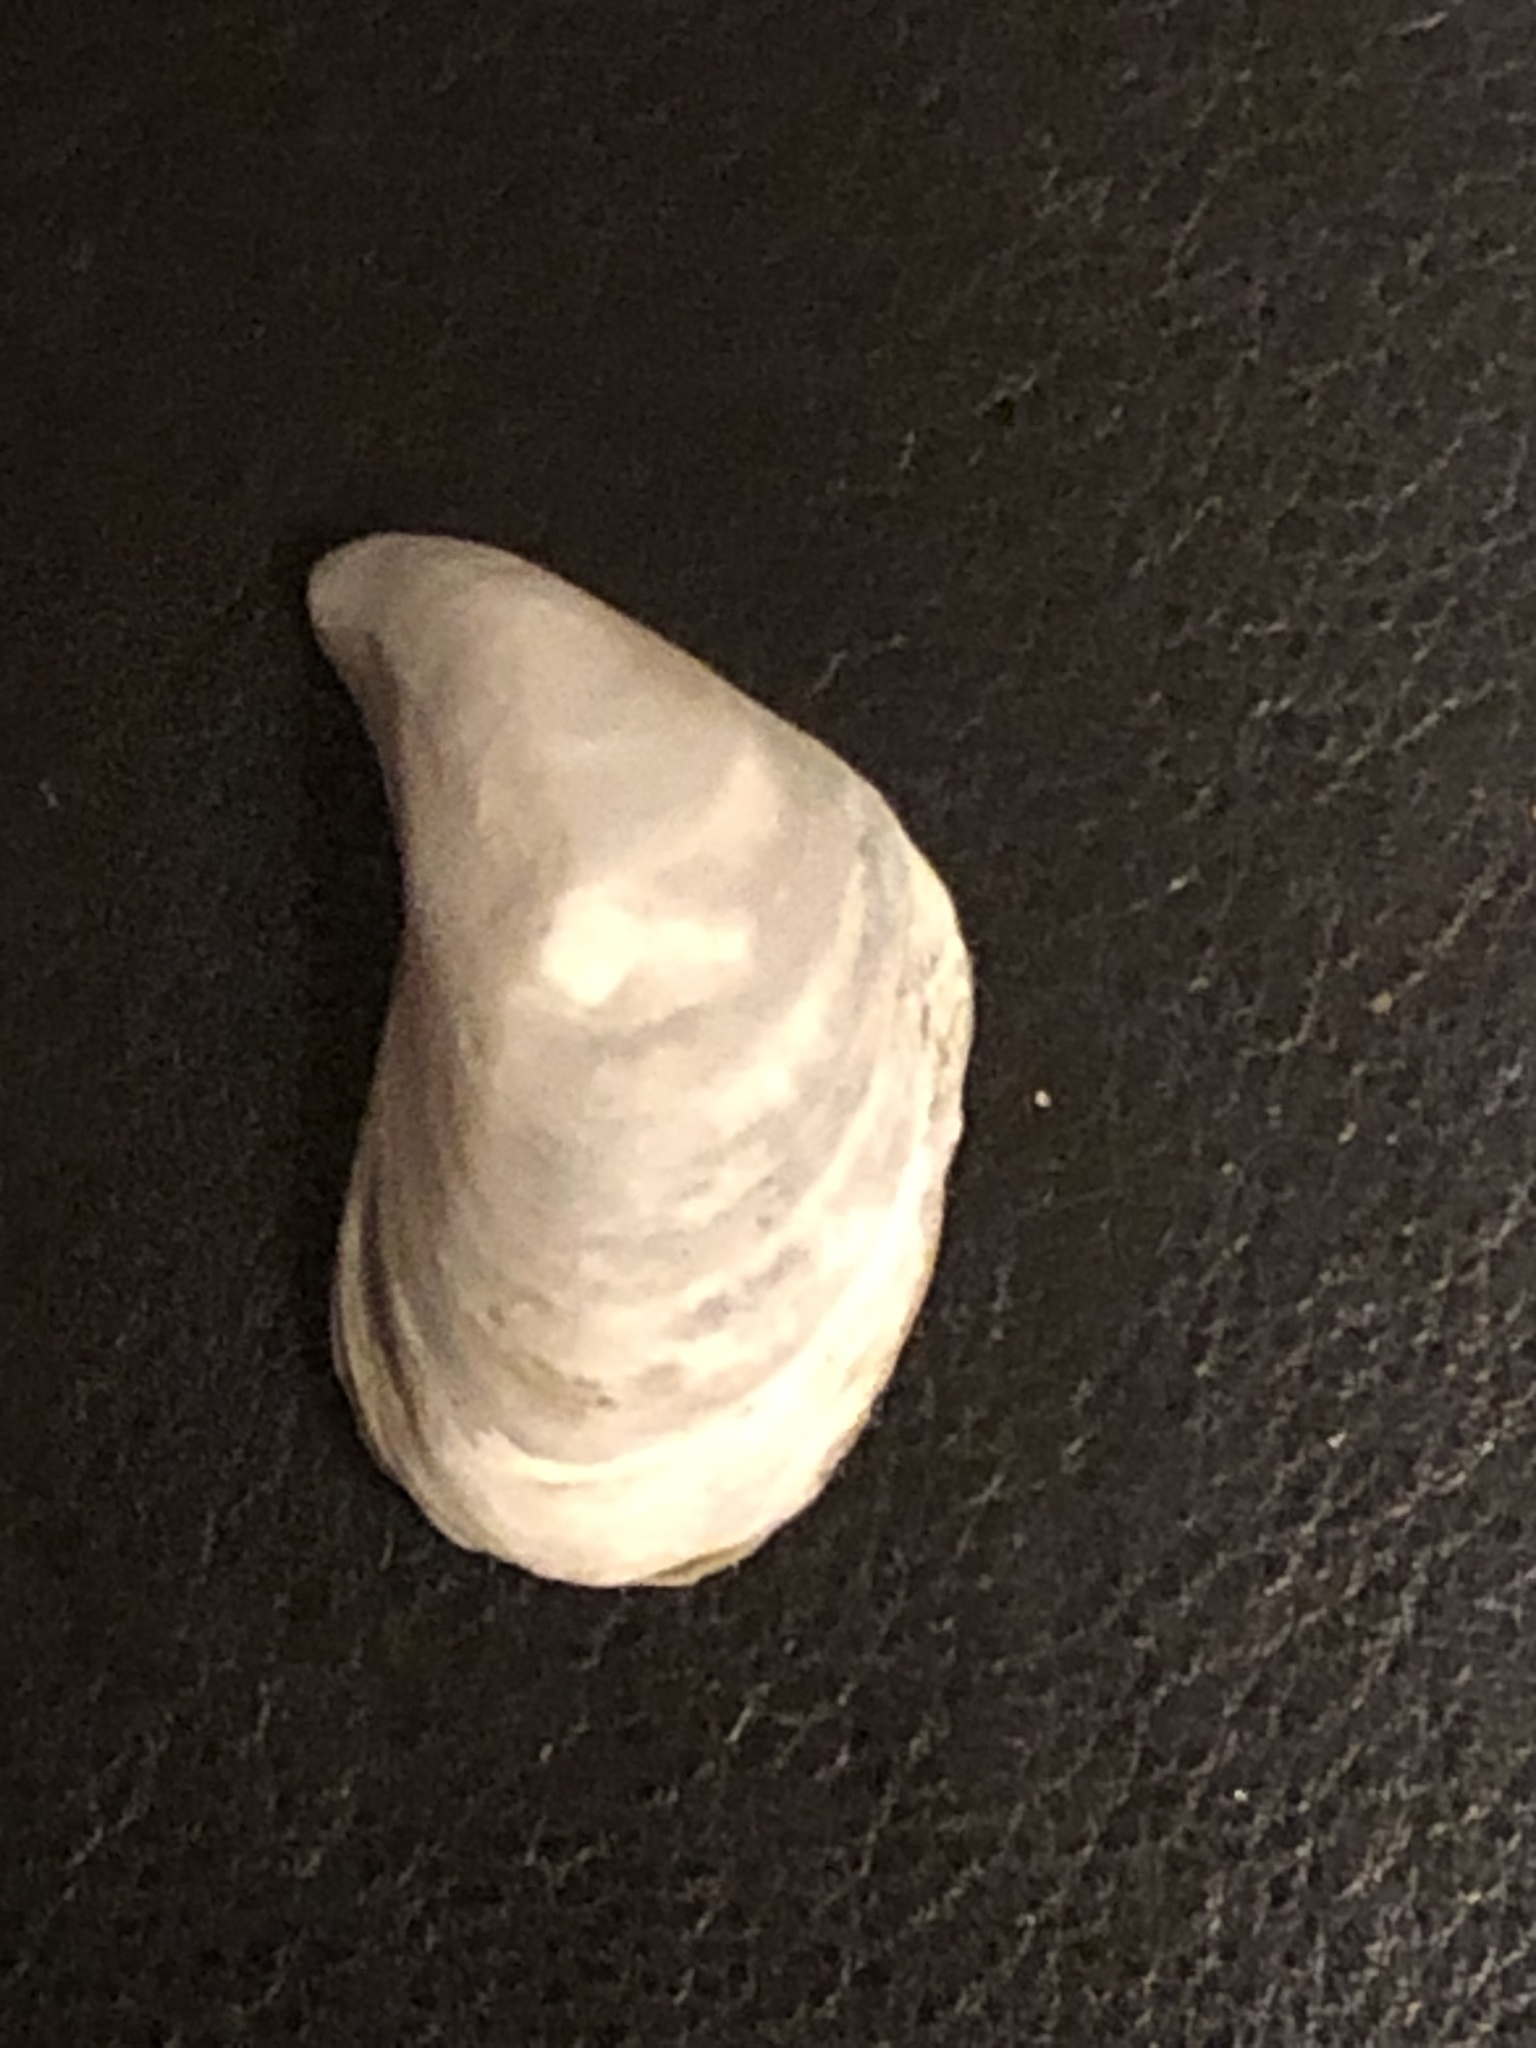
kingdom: Animalia
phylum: Mollusca
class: Bivalvia
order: Myida
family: Dreissenidae
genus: Dreissena
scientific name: Dreissena bugensis
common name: Quagga mussel
